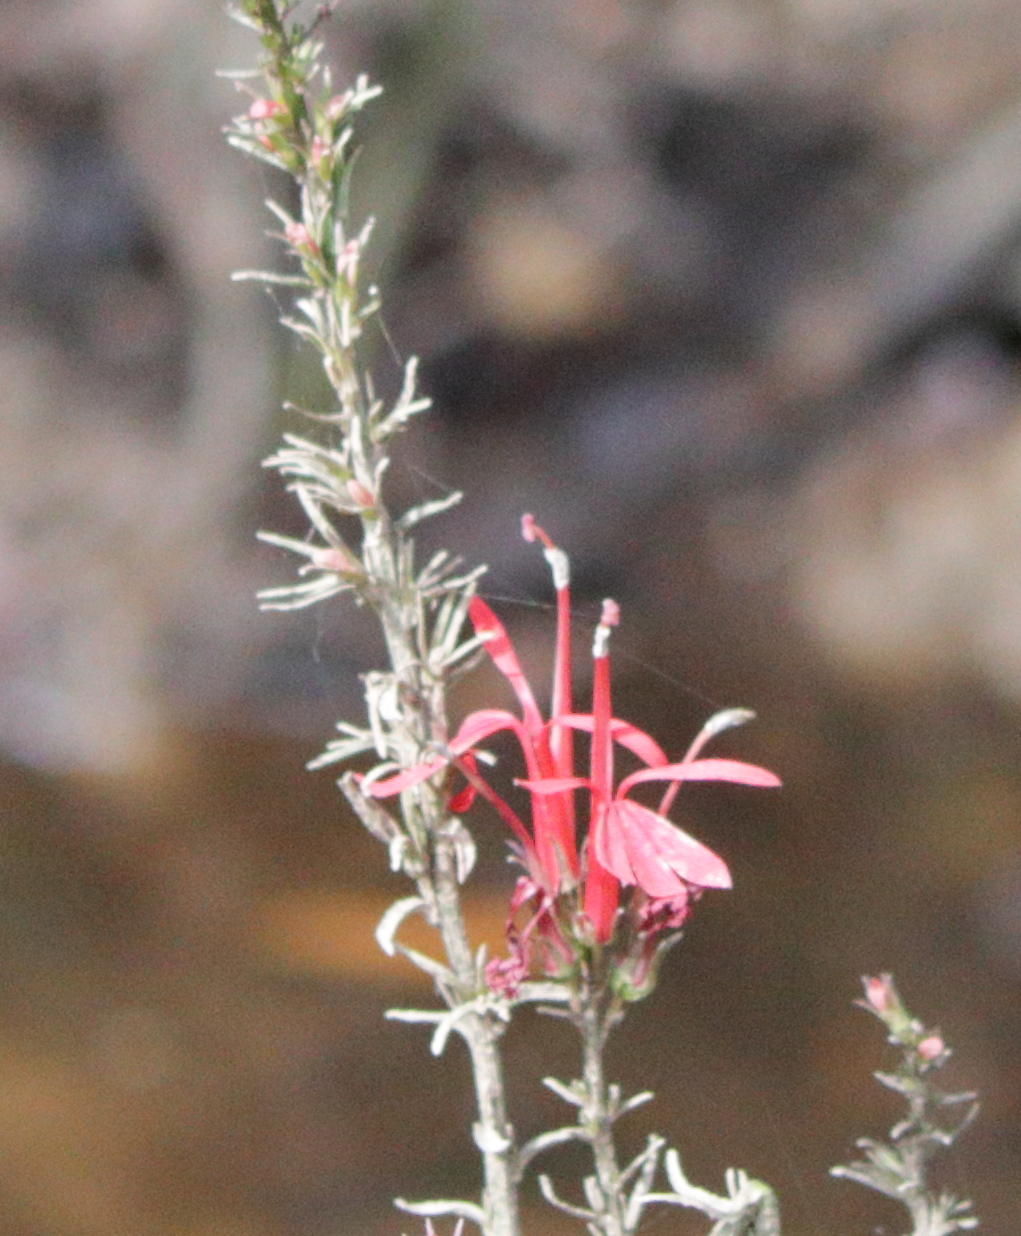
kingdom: Plantae
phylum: Tracheophyta
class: Magnoliopsida
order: Asterales
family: Campanulaceae
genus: Lobelia
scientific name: Lobelia cardinalis
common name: Cardinal flower
